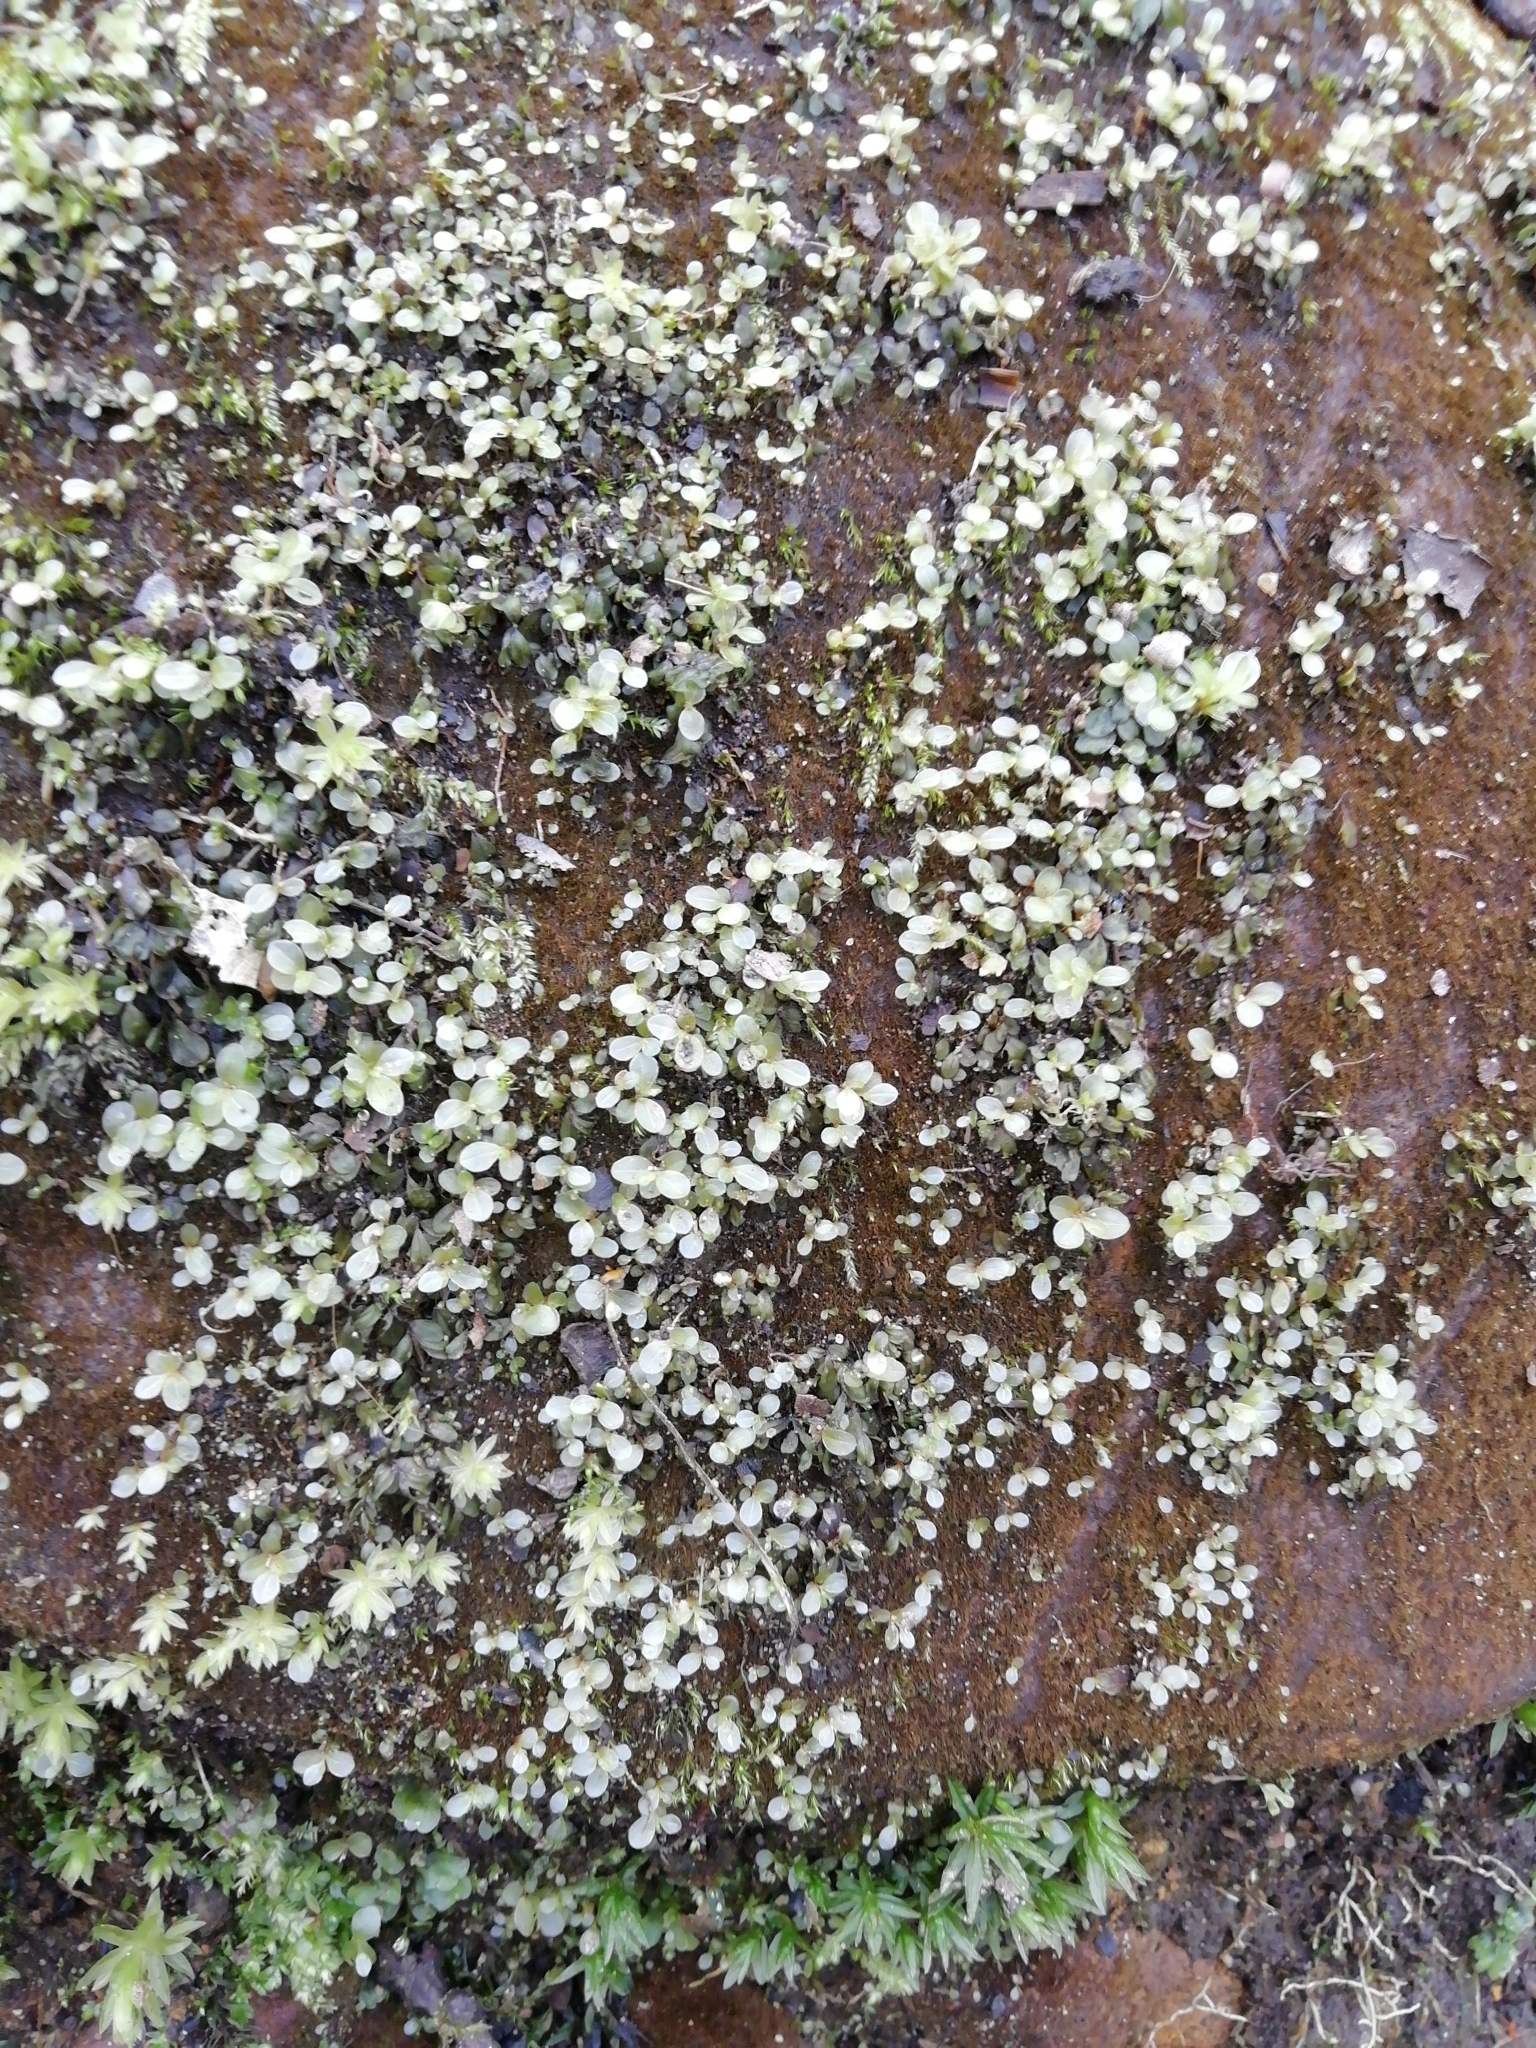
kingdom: Plantae
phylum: Bryophyta
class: Bryopsida
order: Bryales
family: Mniaceae
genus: Rhizomnium
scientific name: Rhizomnium punctatum
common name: Dotted leafy moss
